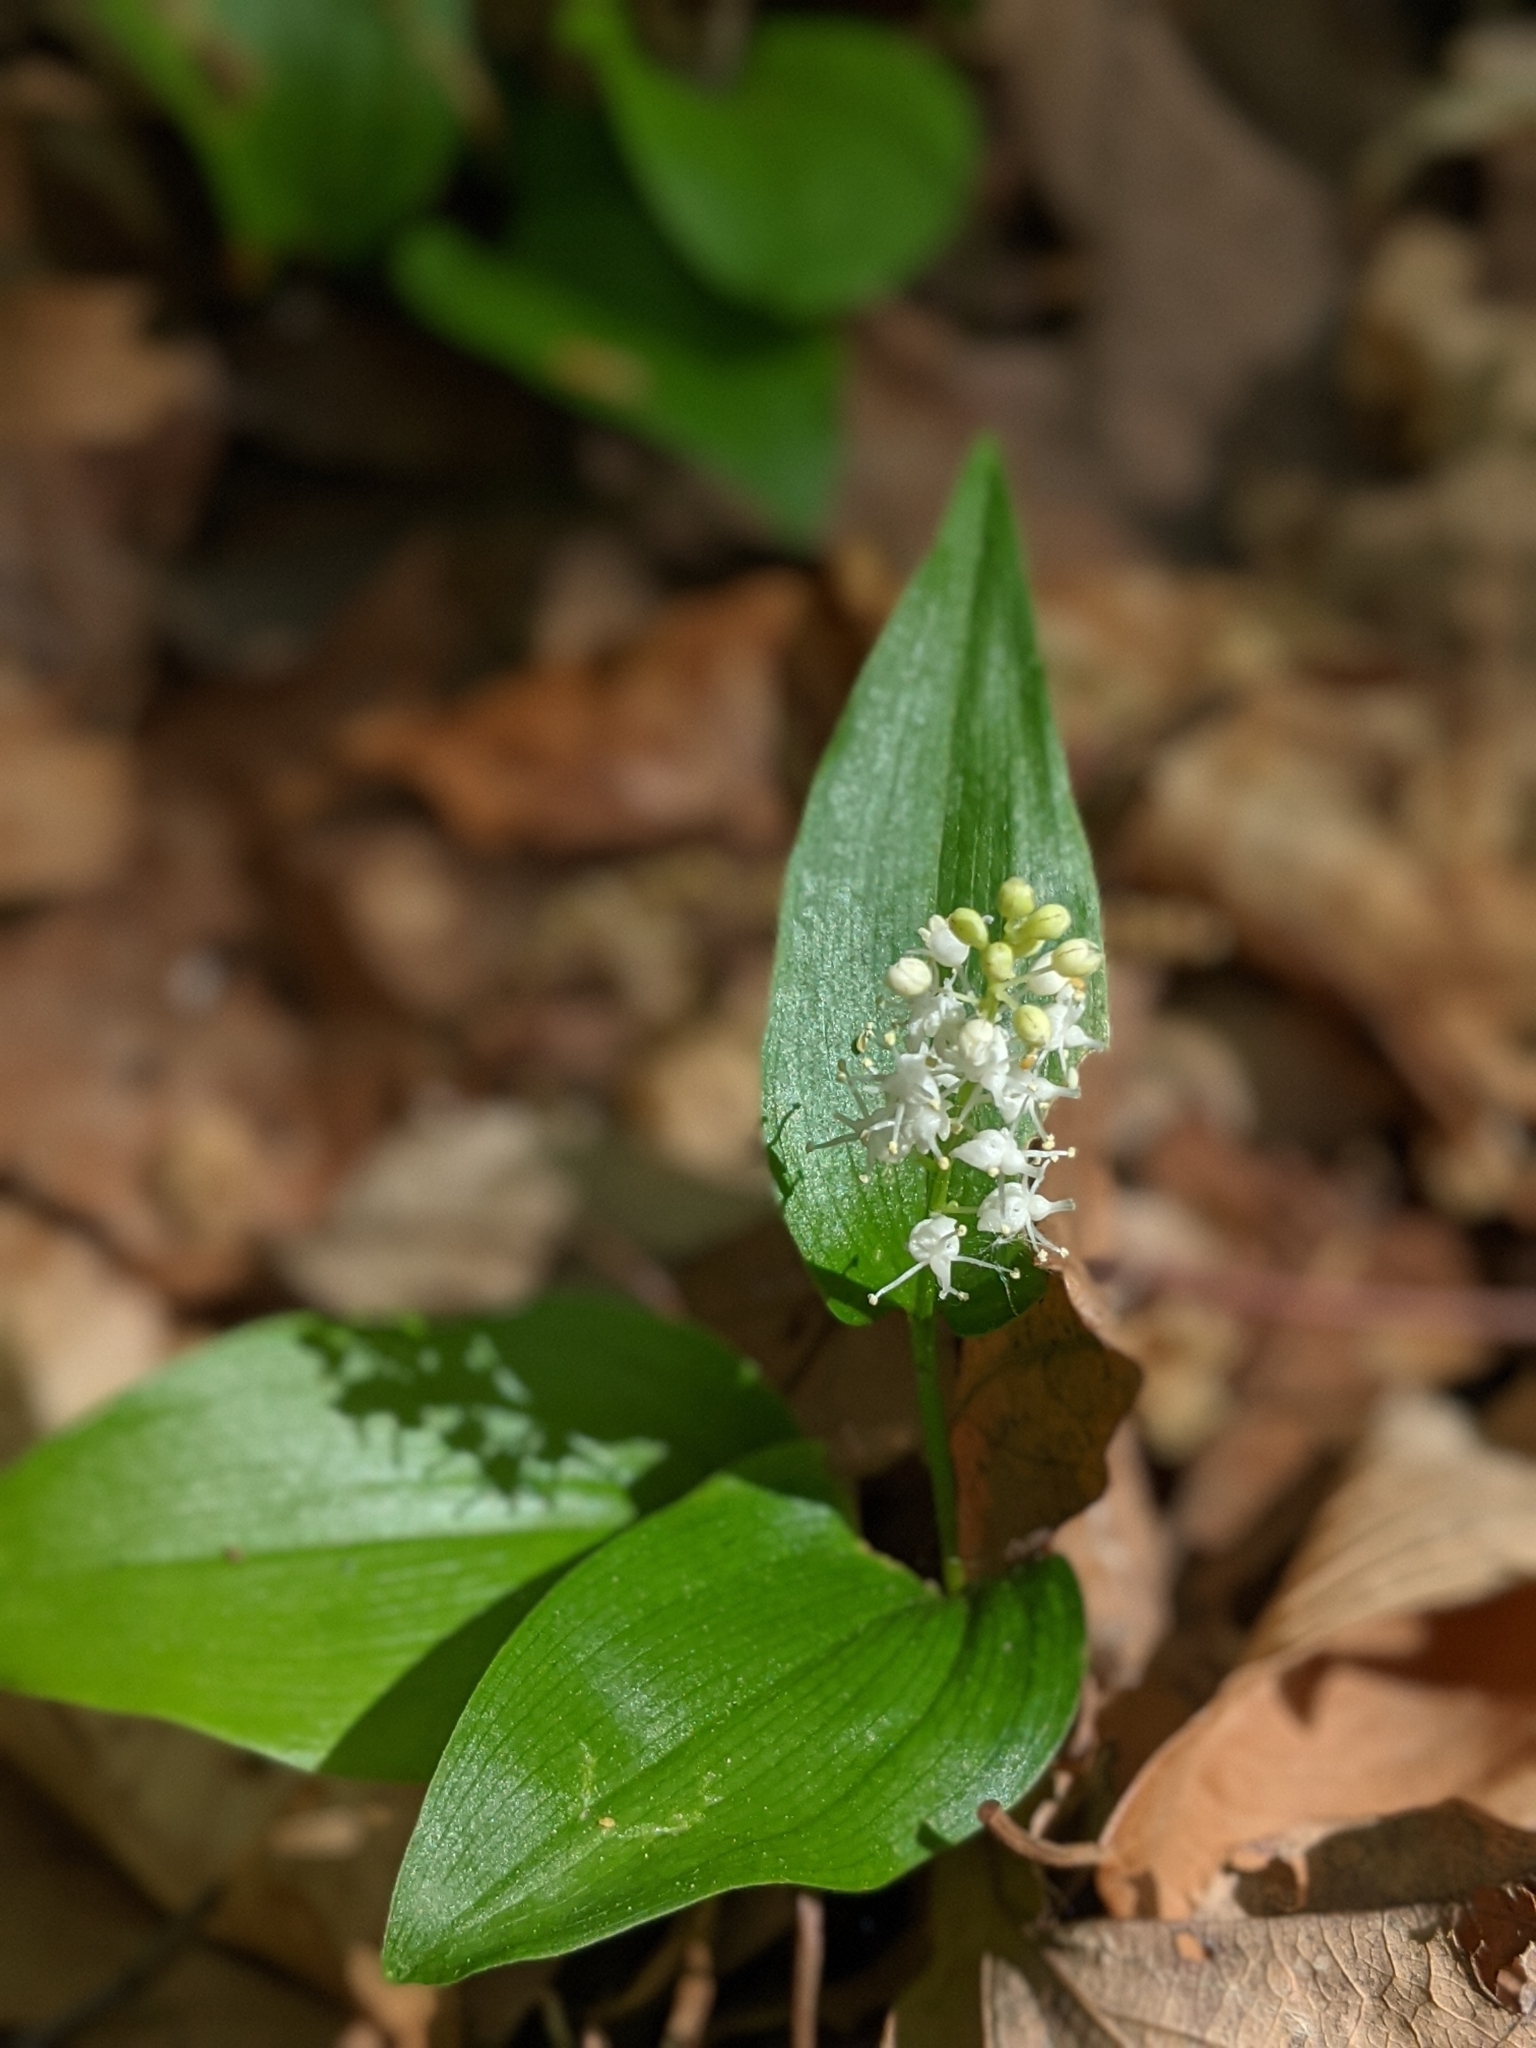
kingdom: Plantae
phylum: Tracheophyta
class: Liliopsida
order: Asparagales
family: Asparagaceae
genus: Maianthemum
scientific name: Maianthemum canadense
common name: False lily-of-the-valley
